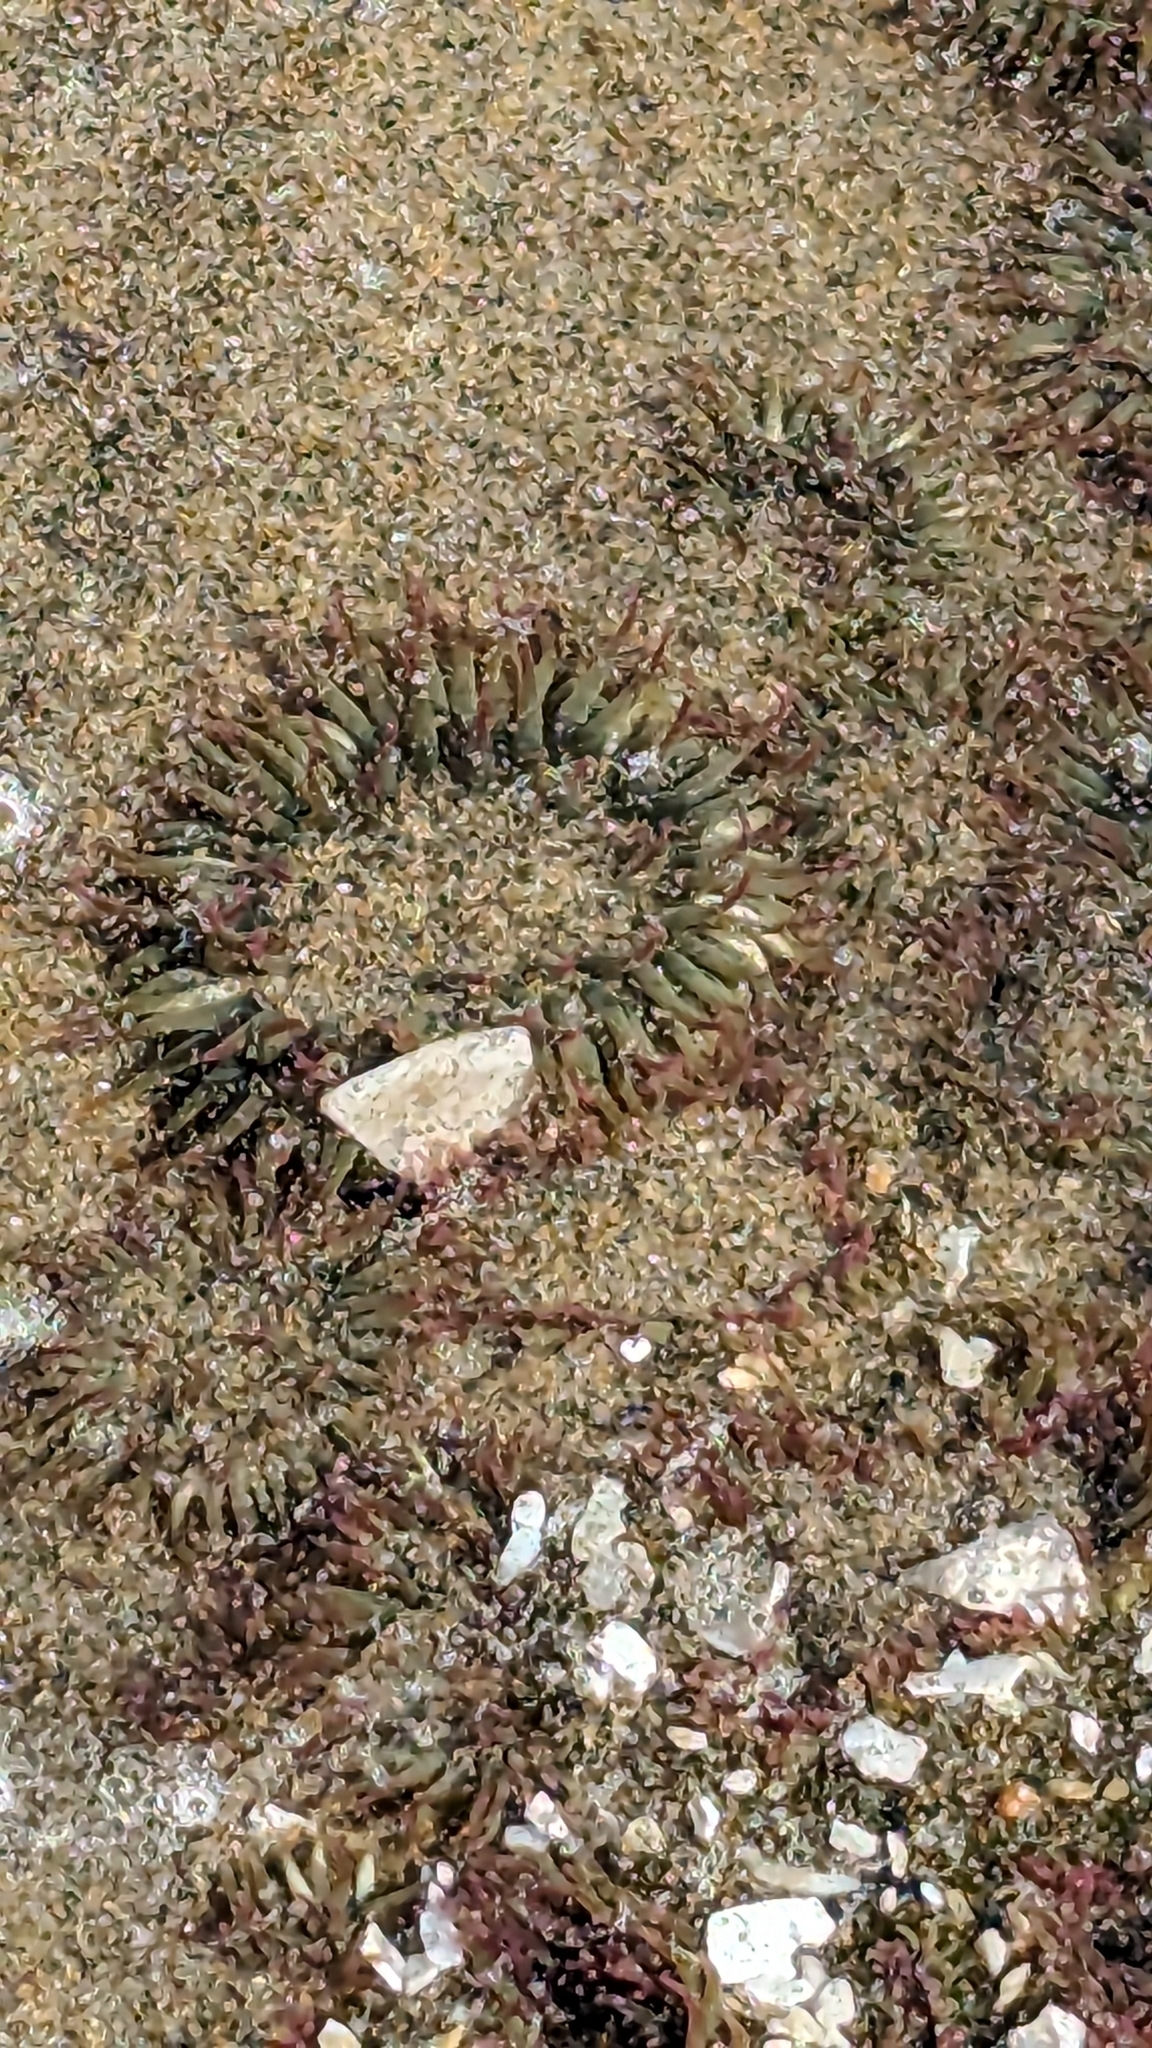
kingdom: Animalia
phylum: Cnidaria
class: Anthozoa
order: Actiniaria
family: Actiniidae
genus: Anthopleura
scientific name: Anthopleura elegantissima
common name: Clonal anemone
